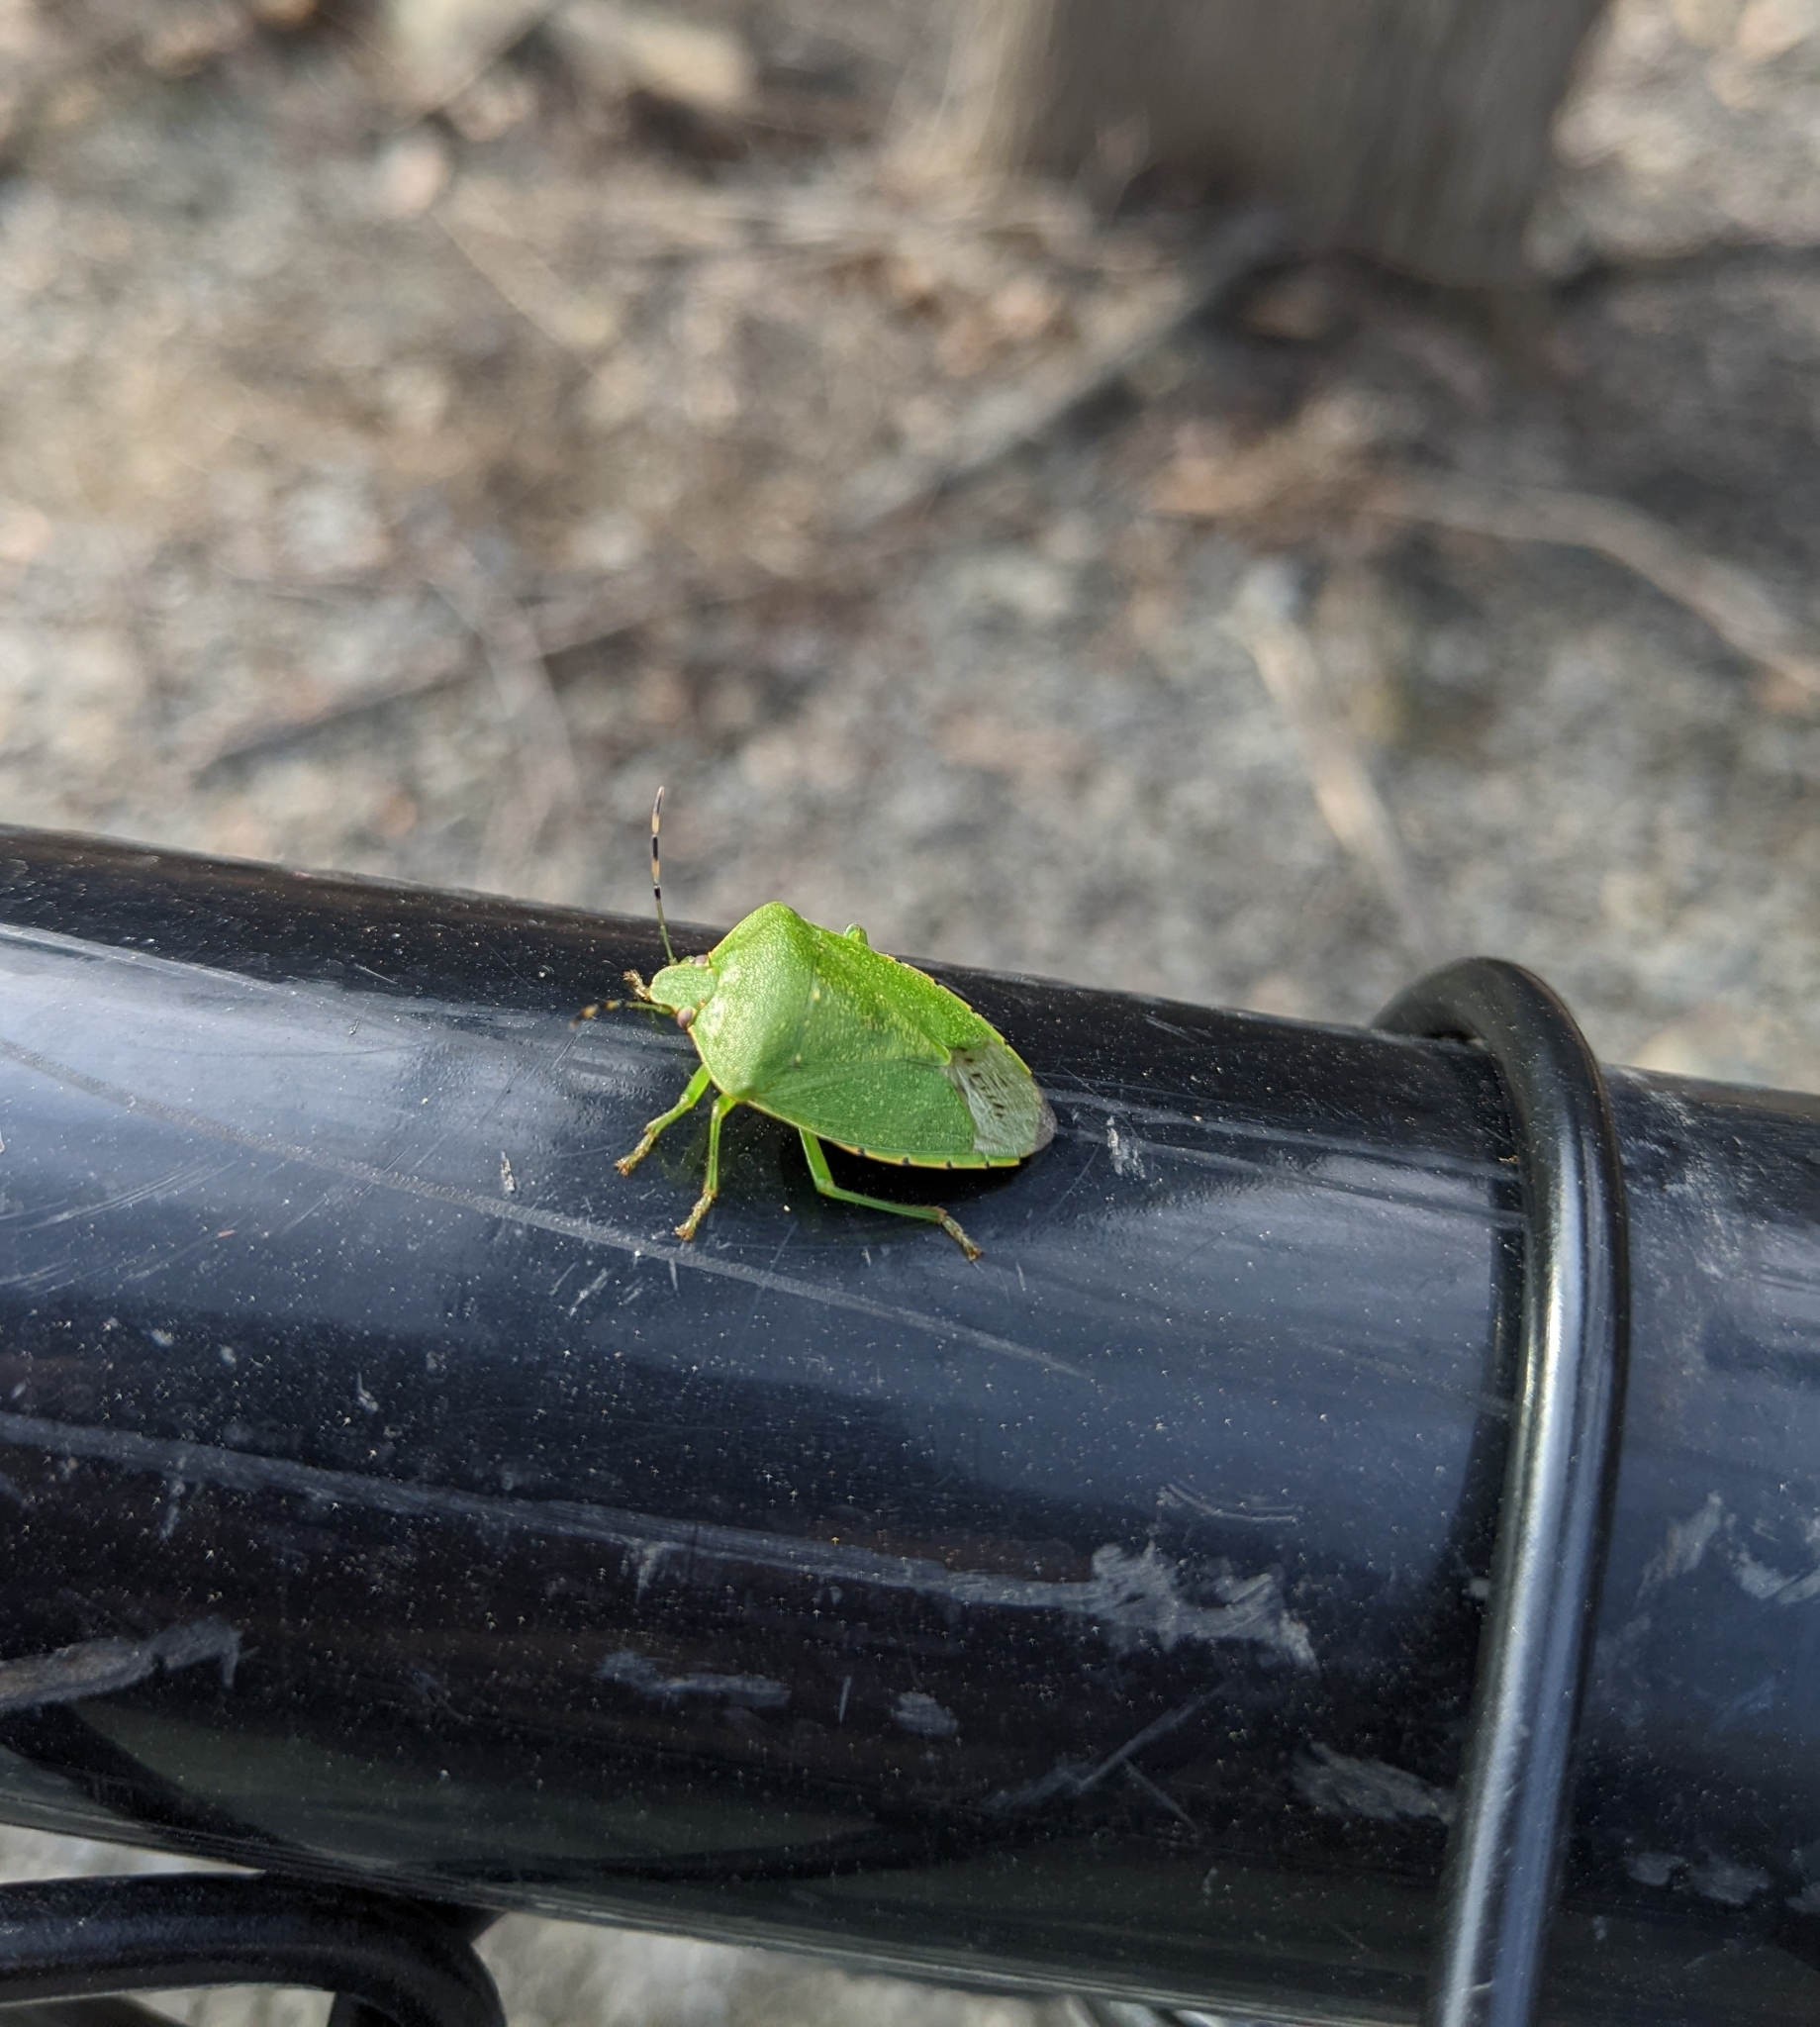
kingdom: Animalia
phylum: Arthropoda
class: Insecta
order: Hemiptera
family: Pentatomidae
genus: Chinavia
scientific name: Chinavia hilaris
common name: Green stink bug
